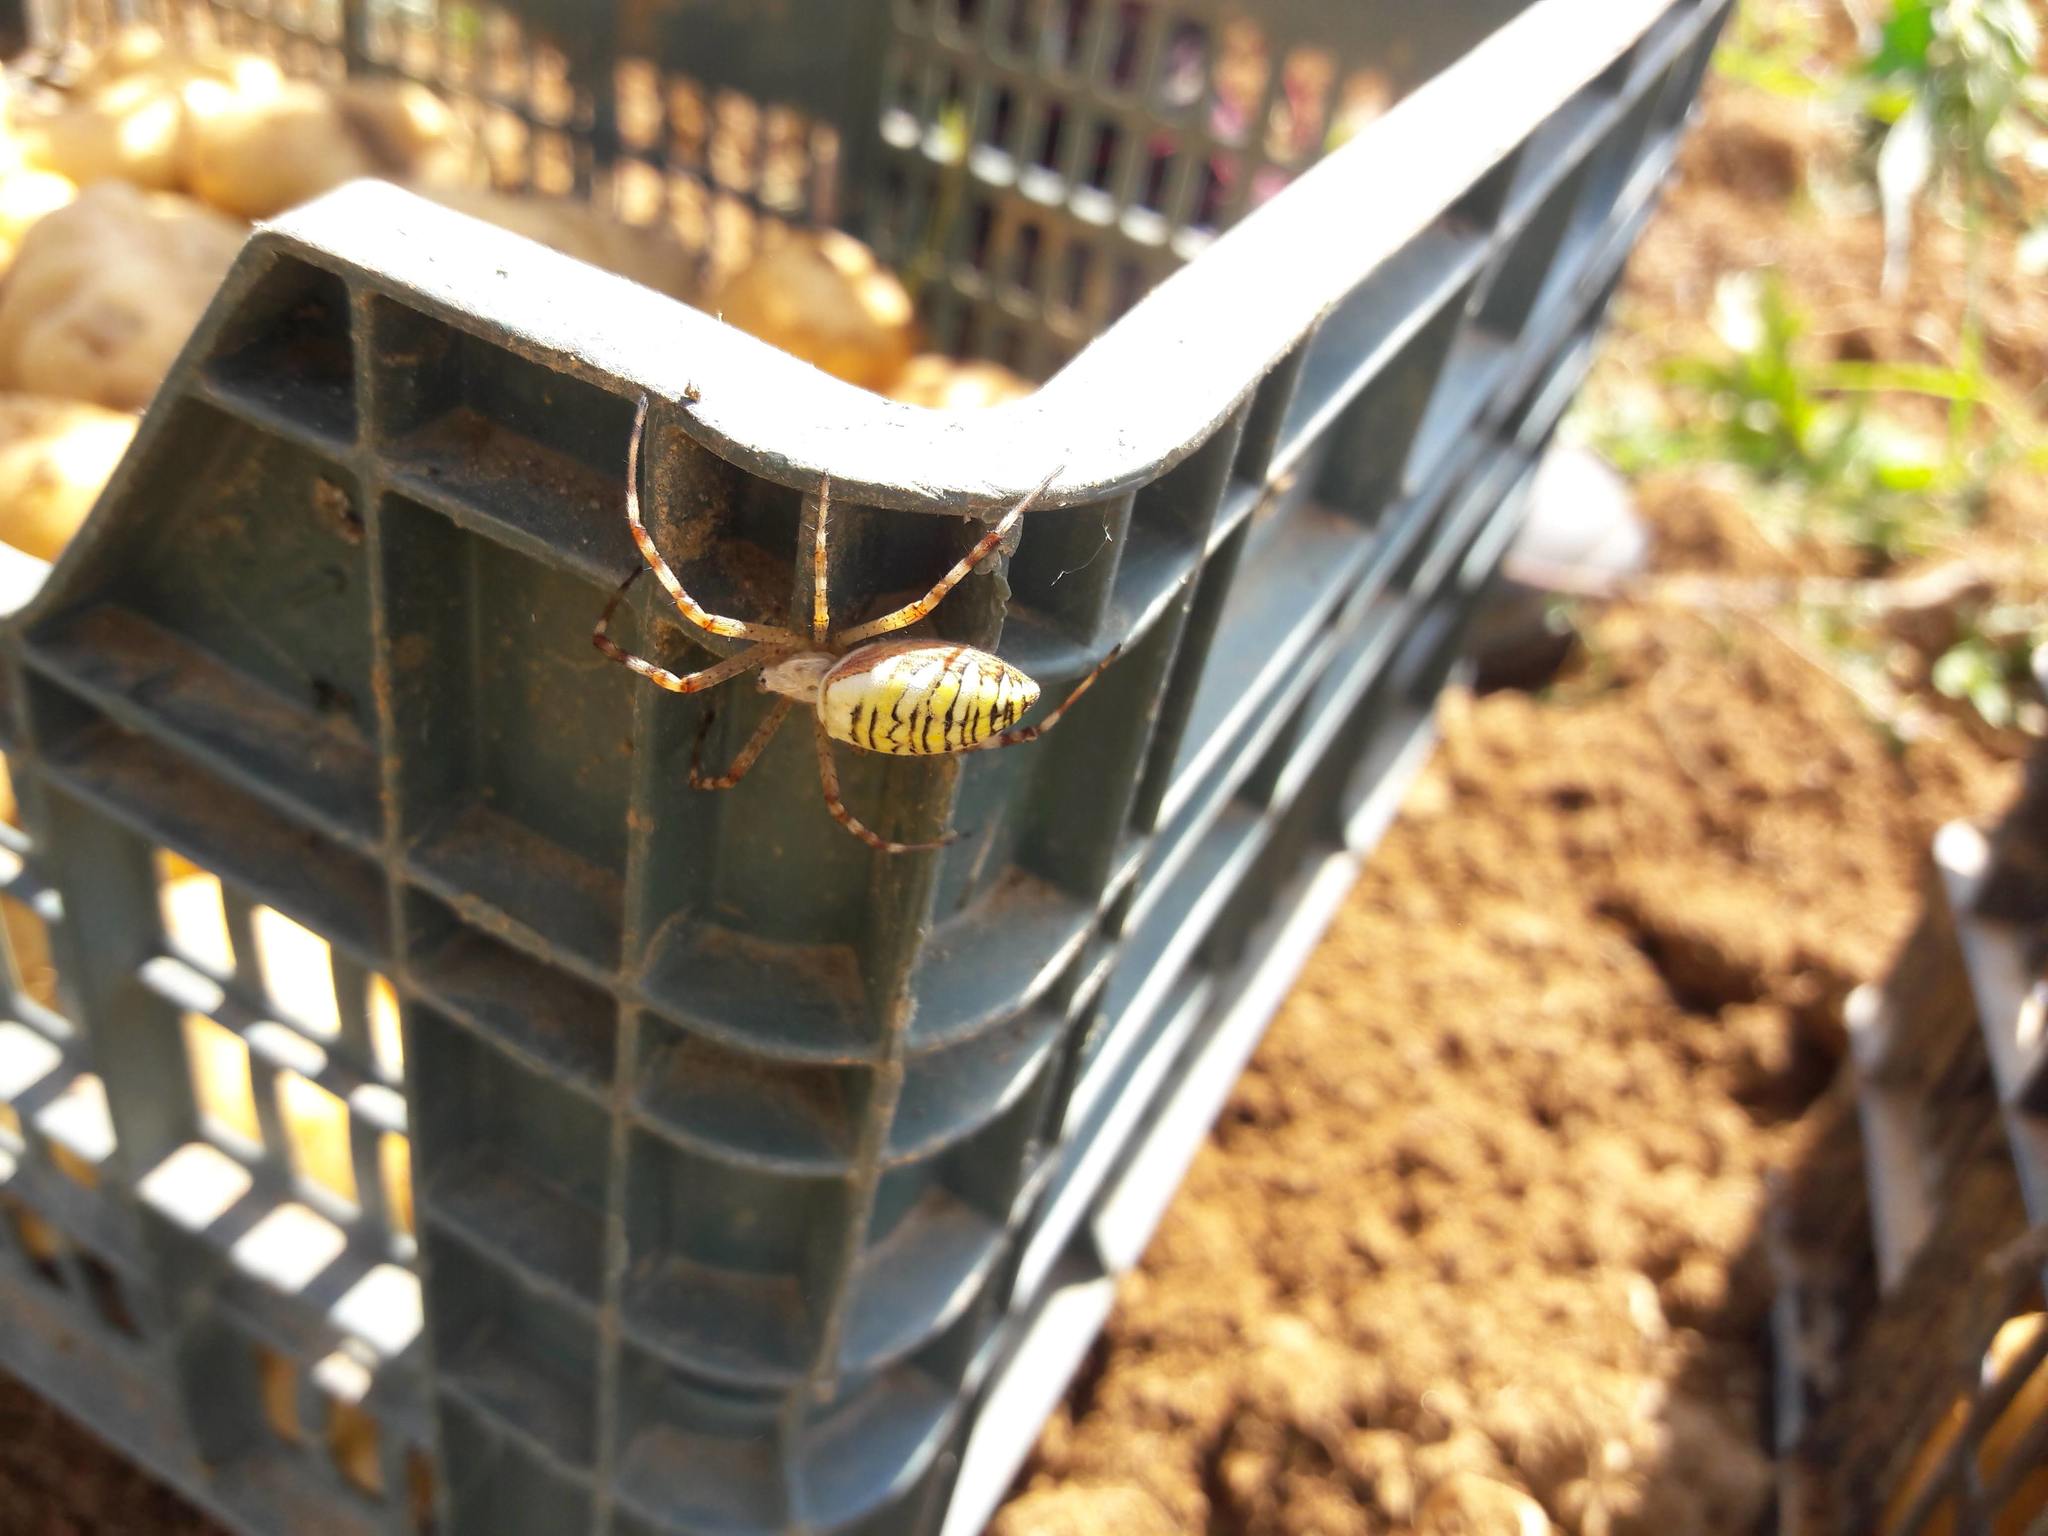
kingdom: Animalia
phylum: Arthropoda
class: Arachnida
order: Araneae
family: Araneidae
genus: Argiope
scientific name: Argiope bruennichi
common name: Wasp spider
